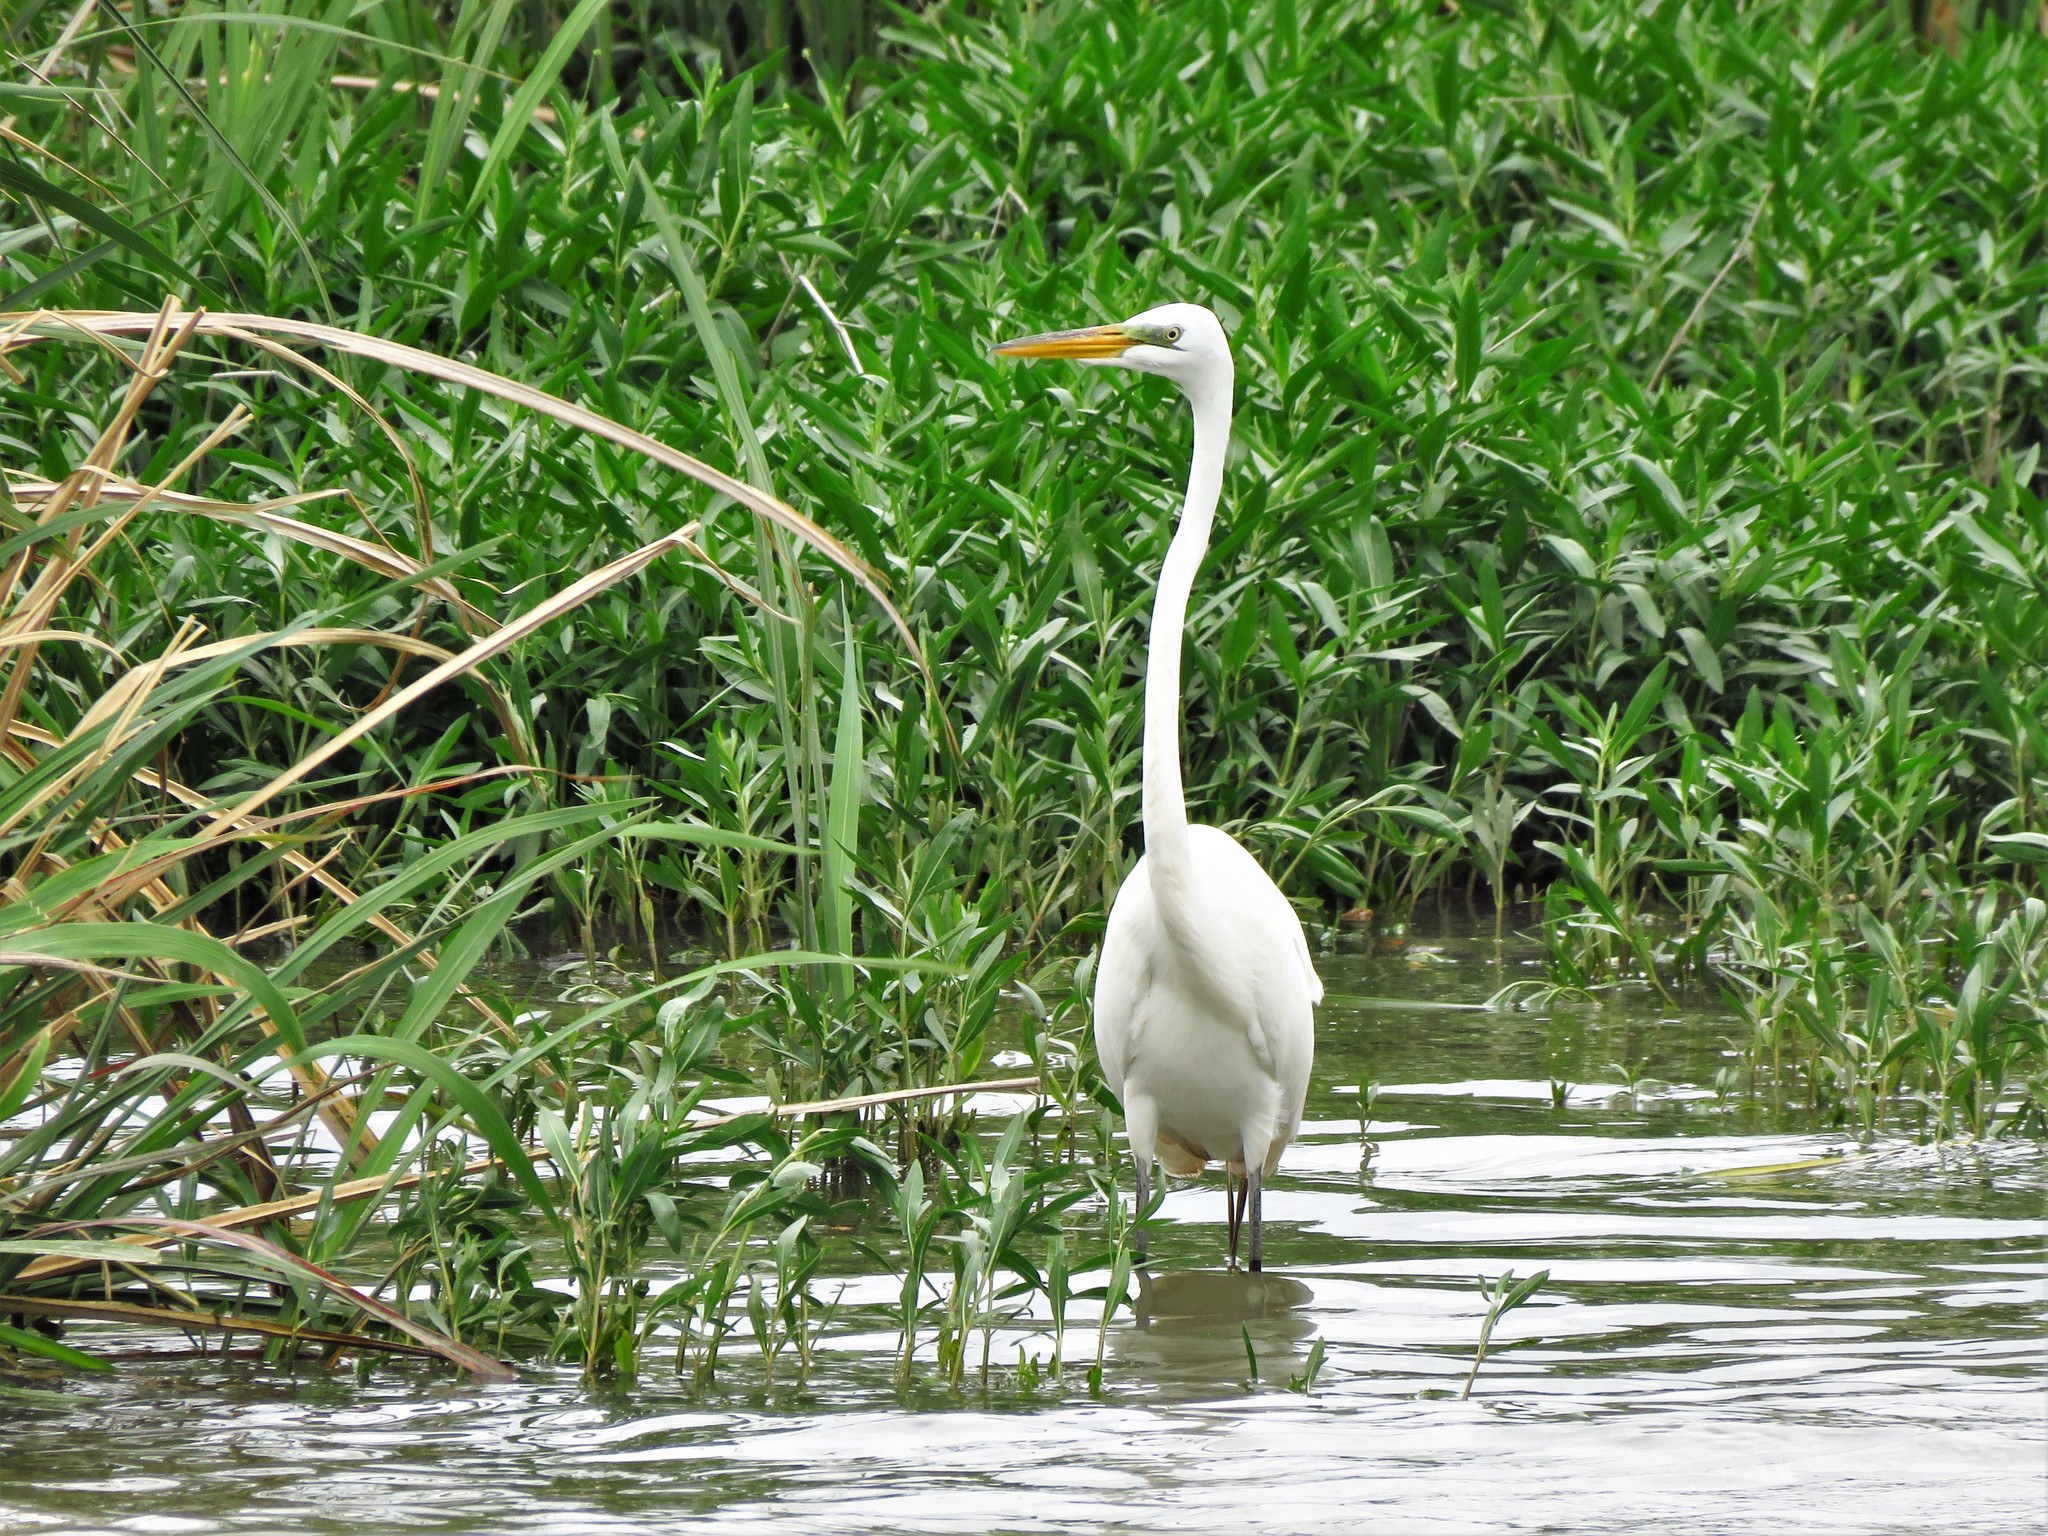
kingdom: Animalia
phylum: Chordata
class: Aves
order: Pelecaniformes
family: Ardeidae
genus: Ardea
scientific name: Ardea alba
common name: Great egret
